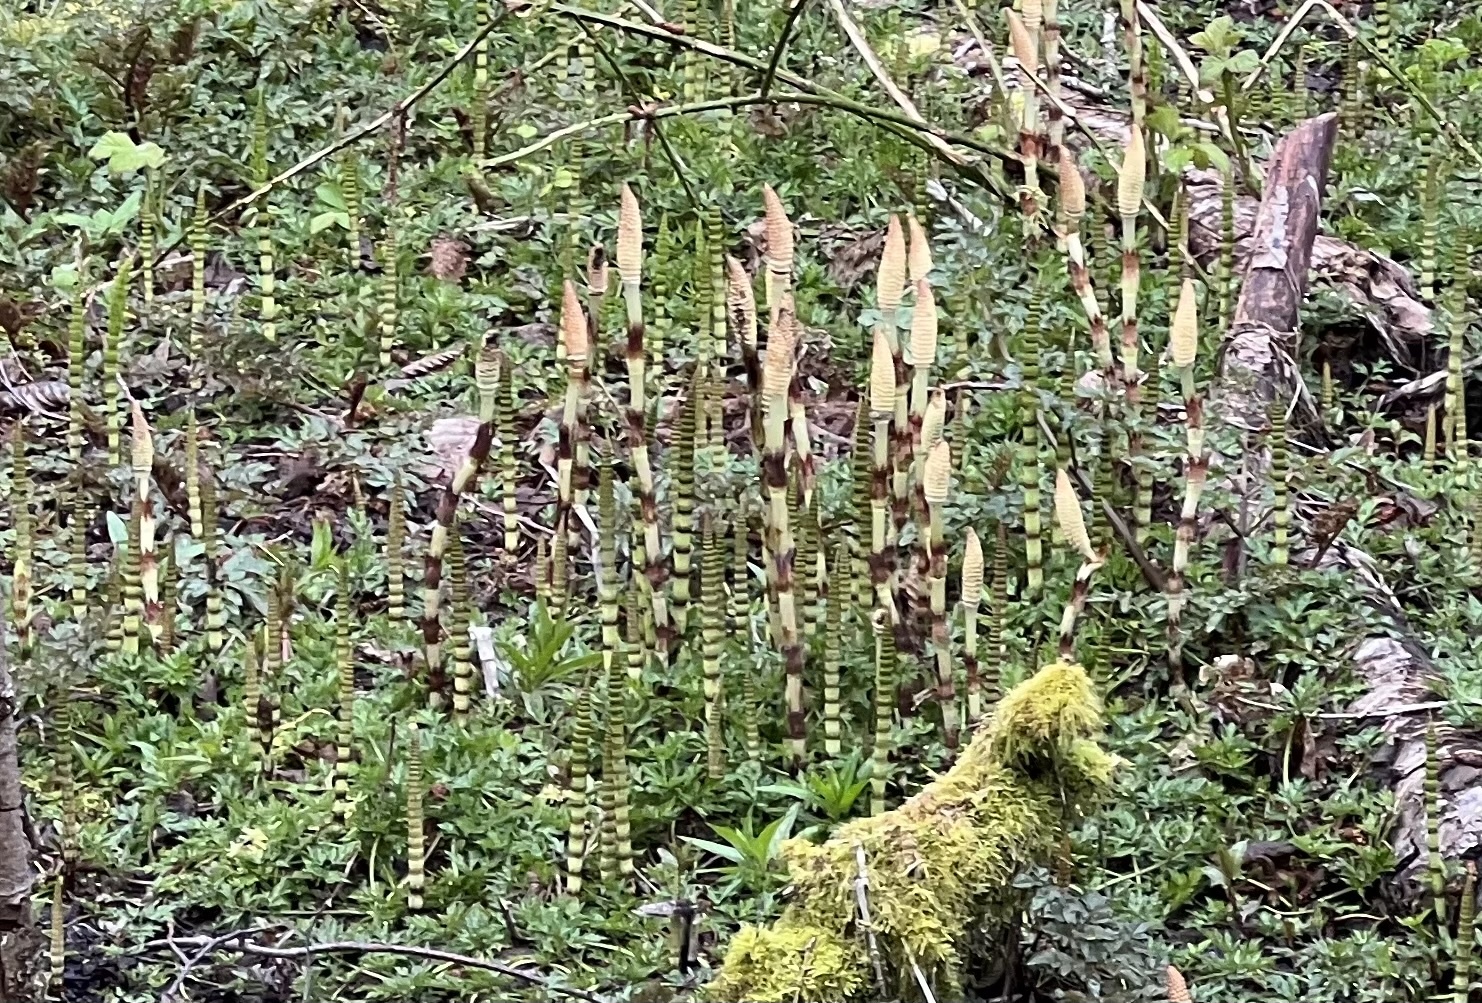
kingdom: Plantae
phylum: Tracheophyta
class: Polypodiopsida
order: Equisetales
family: Equisetaceae
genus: Equisetum
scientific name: Equisetum telmateia
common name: Great horsetail
